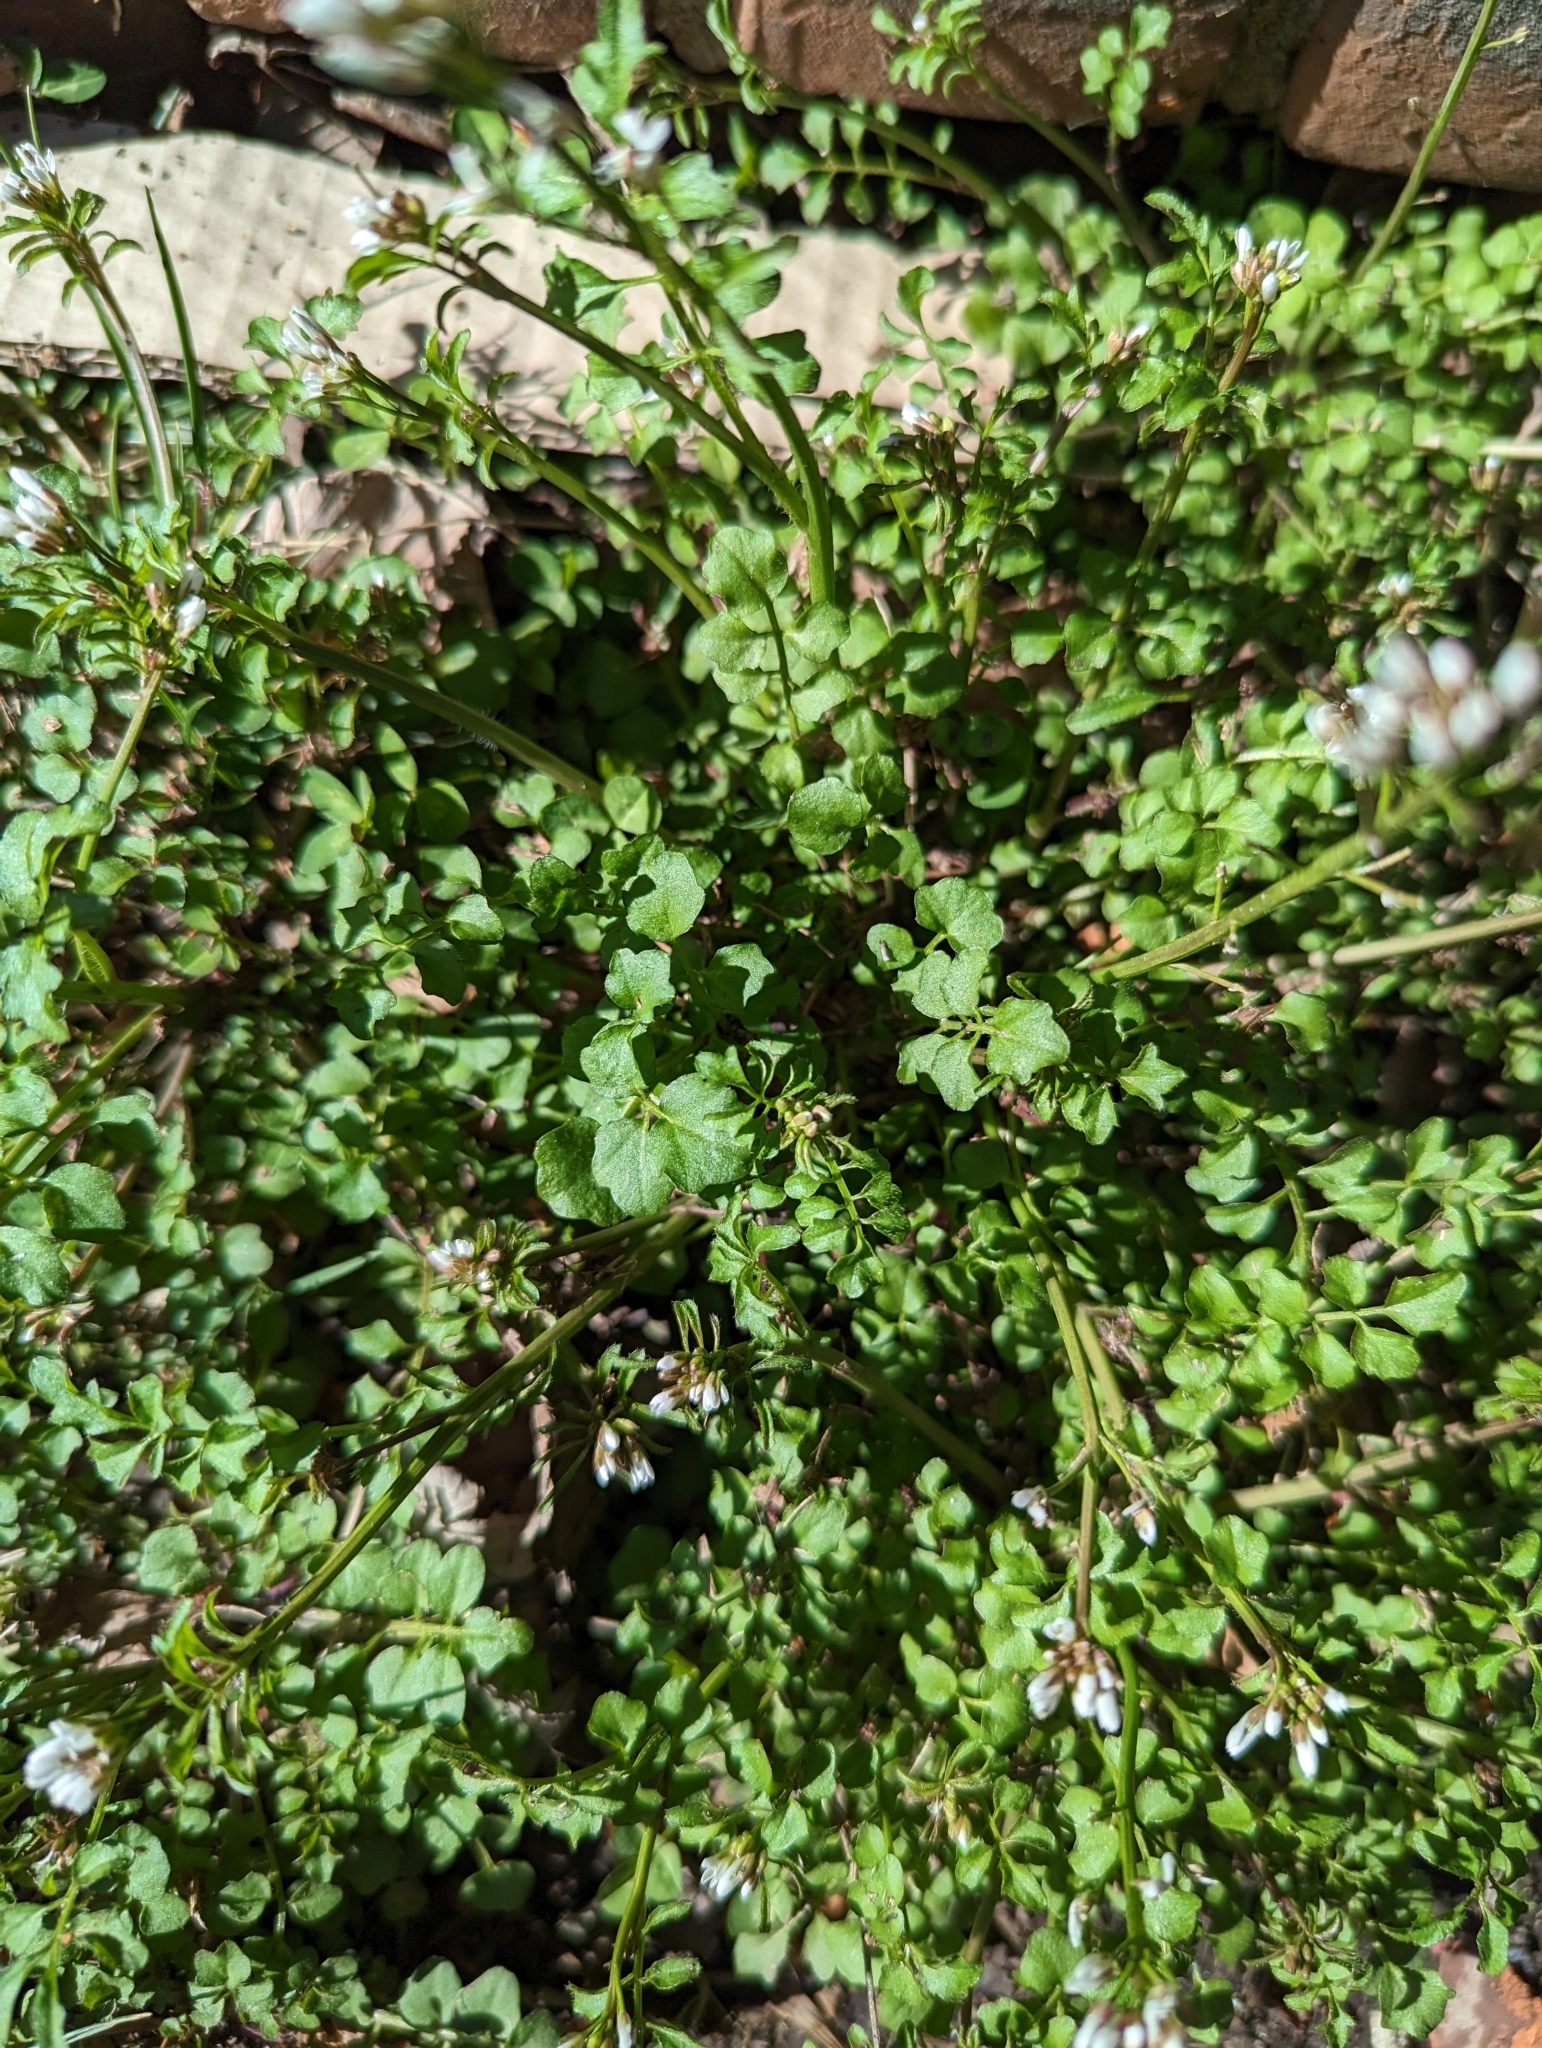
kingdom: Plantae
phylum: Tracheophyta
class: Magnoliopsida
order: Brassicales
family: Brassicaceae
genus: Cardamine
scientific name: Cardamine hirsuta
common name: Hairy bittercress
